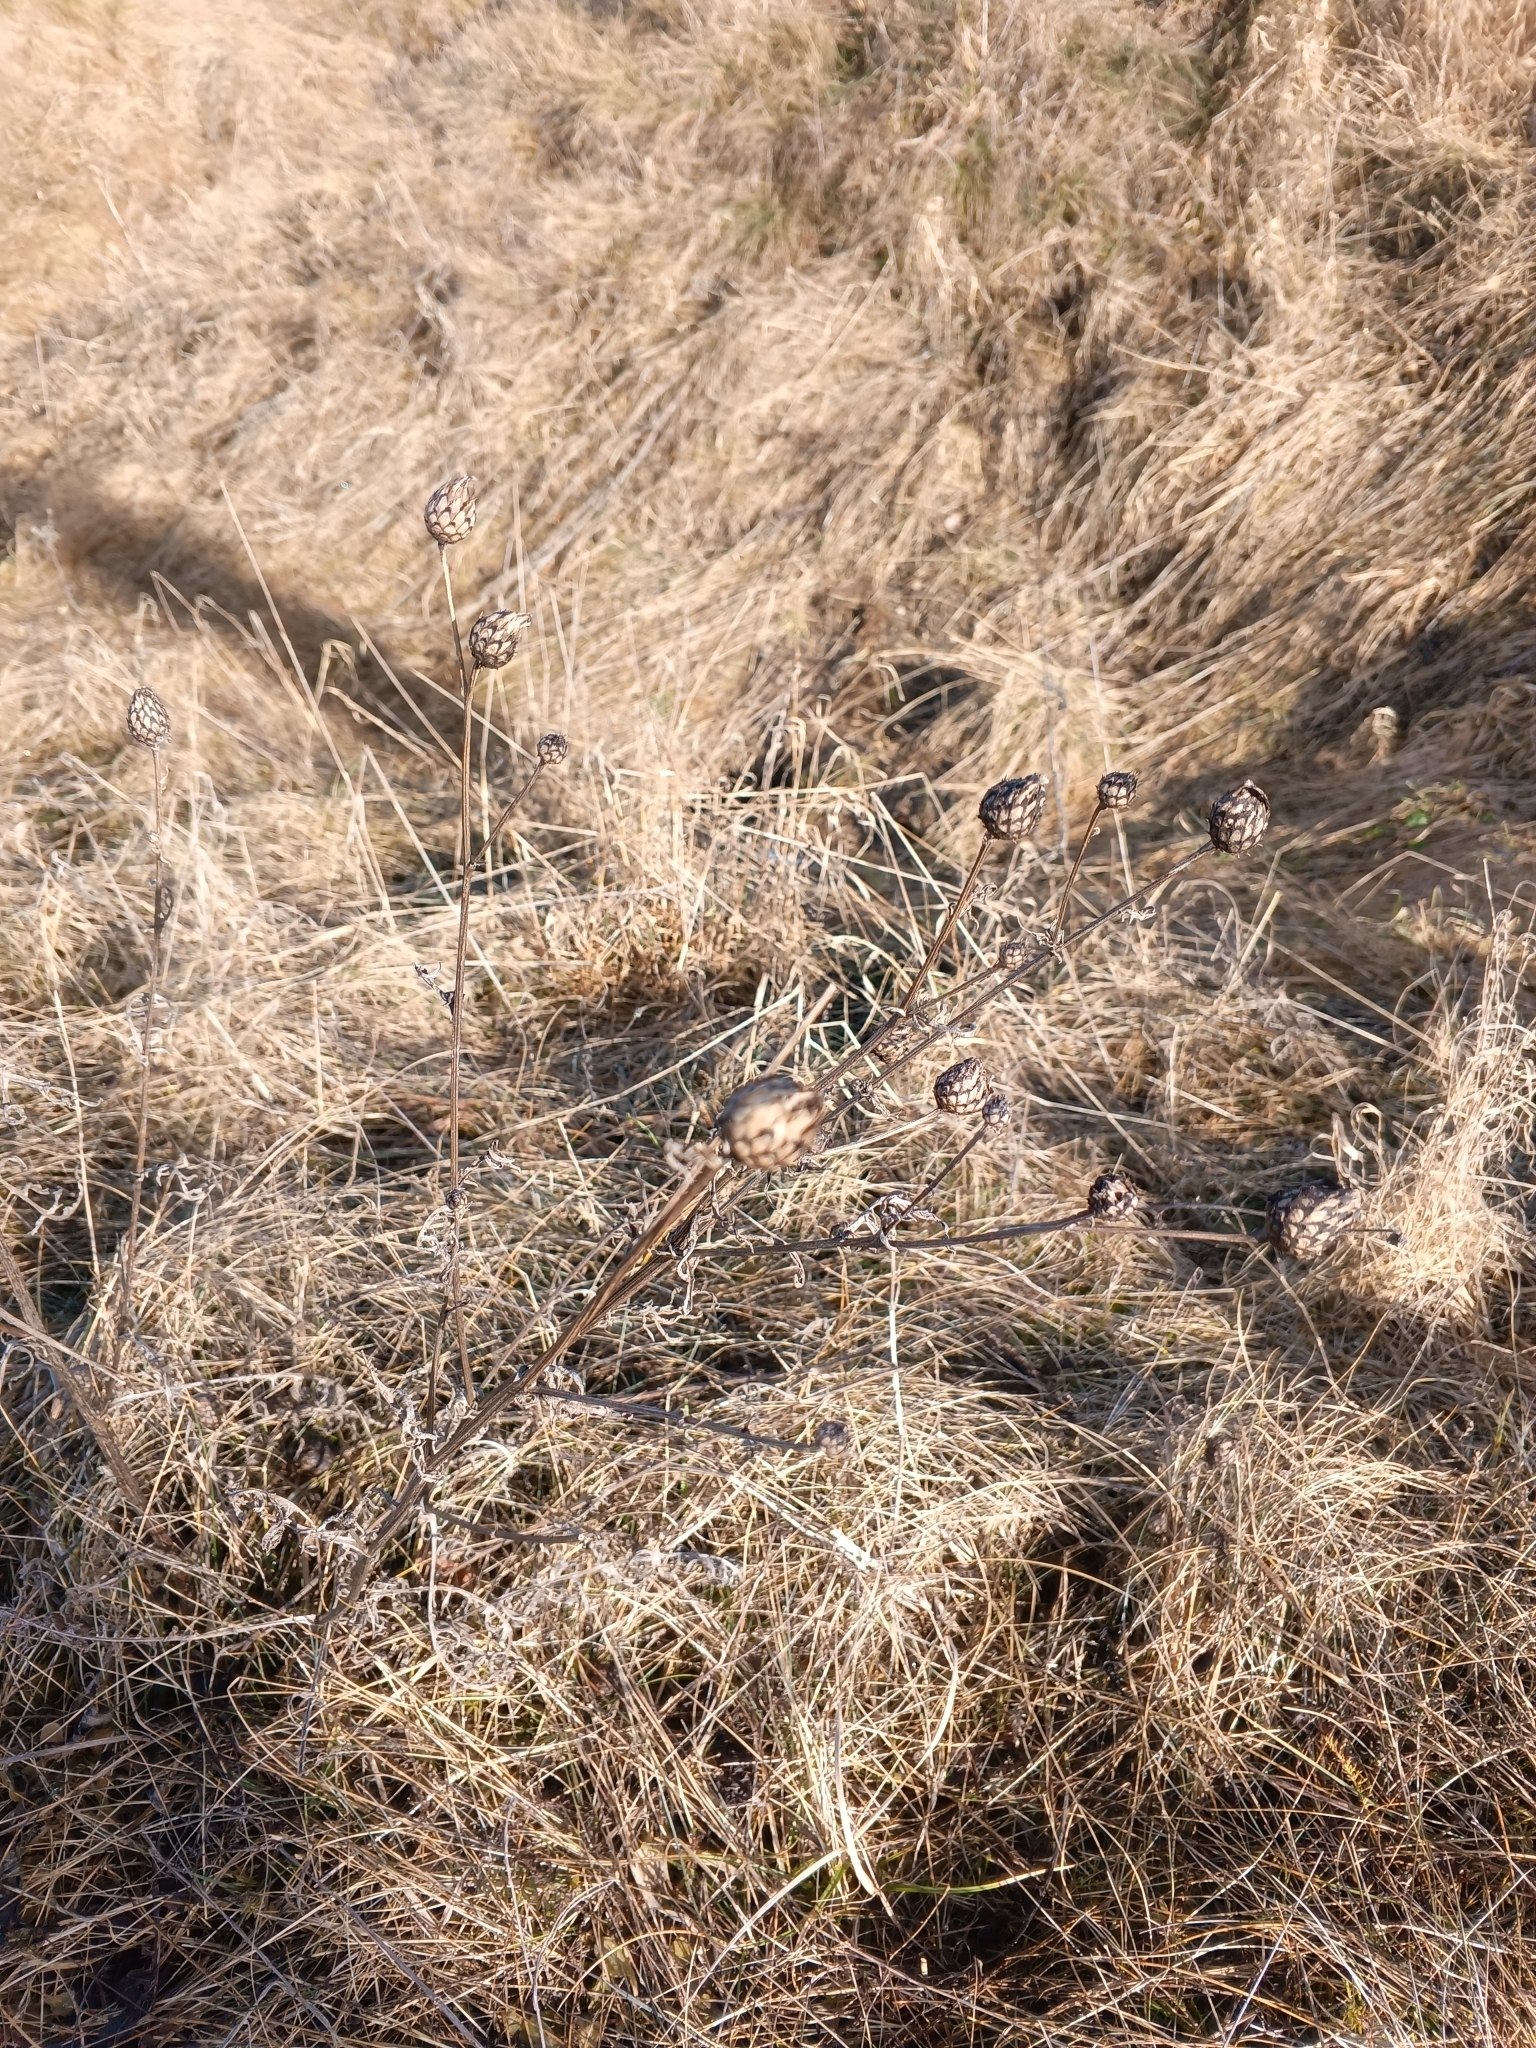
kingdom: Plantae
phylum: Tracheophyta
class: Magnoliopsida
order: Asterales
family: Asteraceae
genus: Centaurea
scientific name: Centaurea scabiosa
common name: Greater knapweed
